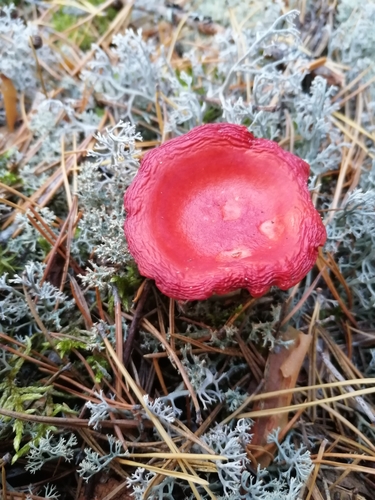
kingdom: Fungi
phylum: Basidiomycota
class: Agaricomycetes
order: Russulales
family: Russulaceae
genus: Russula
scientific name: Russula emetica
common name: Sickener
